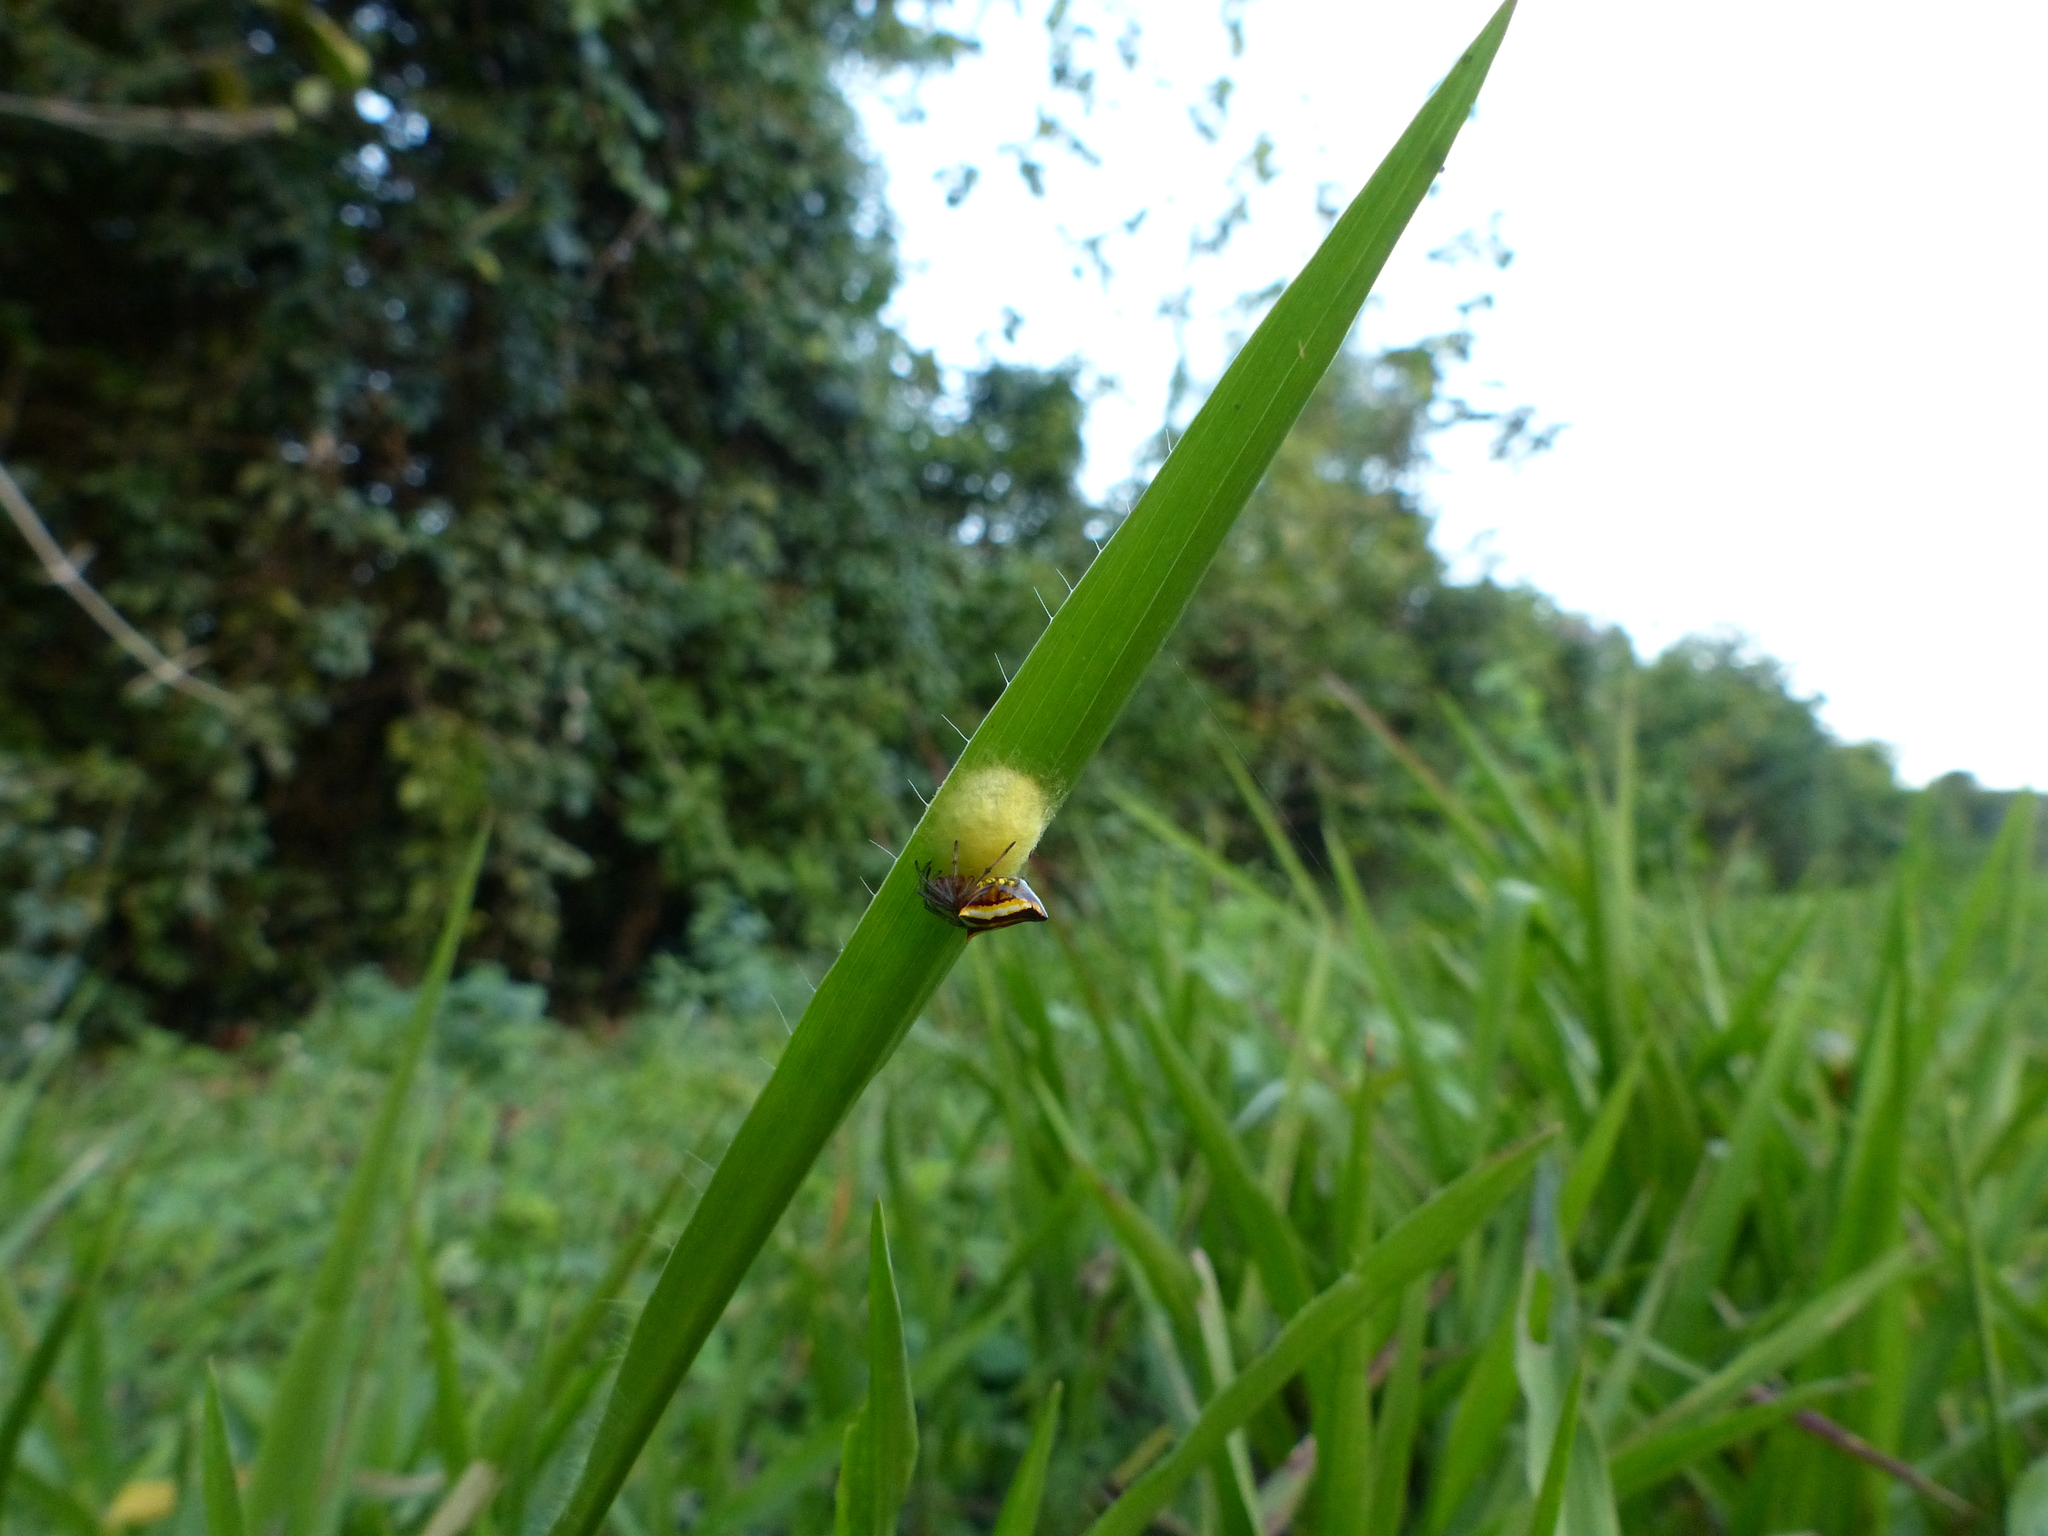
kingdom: Animalia
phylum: Arthropoda
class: Arachnida
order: Araneae
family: Araneidae
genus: Alpaida
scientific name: Alpaida bicornuta
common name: Orb weavers
